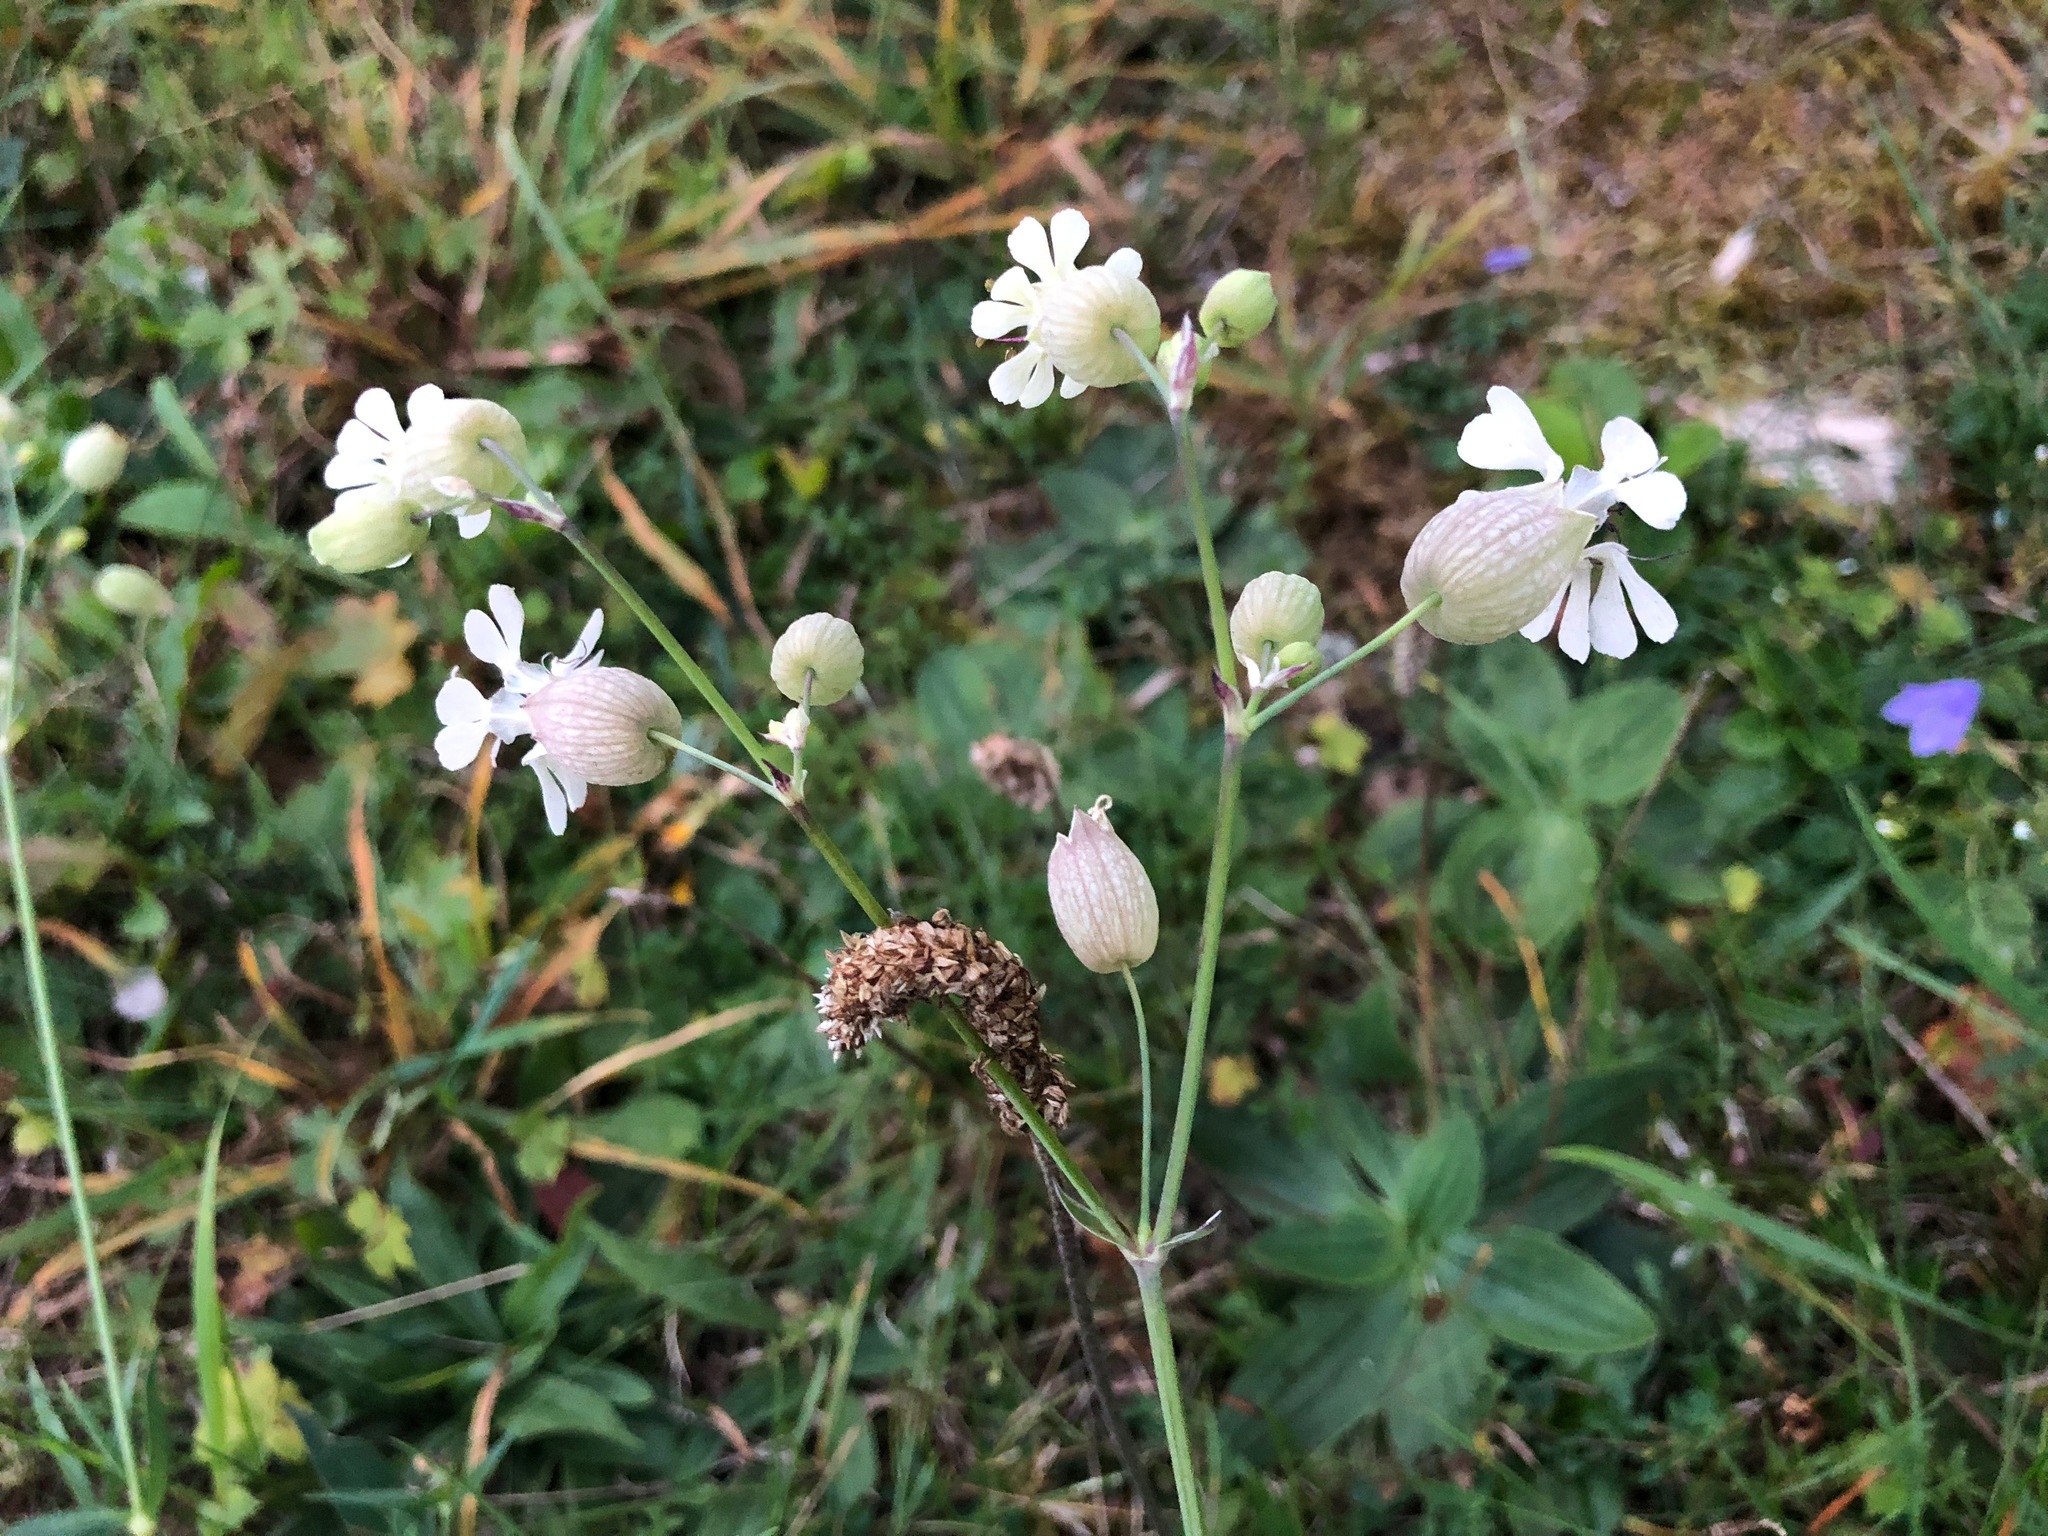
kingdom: Plantae
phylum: Tracheophyta
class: Magnoliopsida
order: Caryophyllales
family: Caryophyllaceae
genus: Silene
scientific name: Silene vulgaris
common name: Bladder campion
